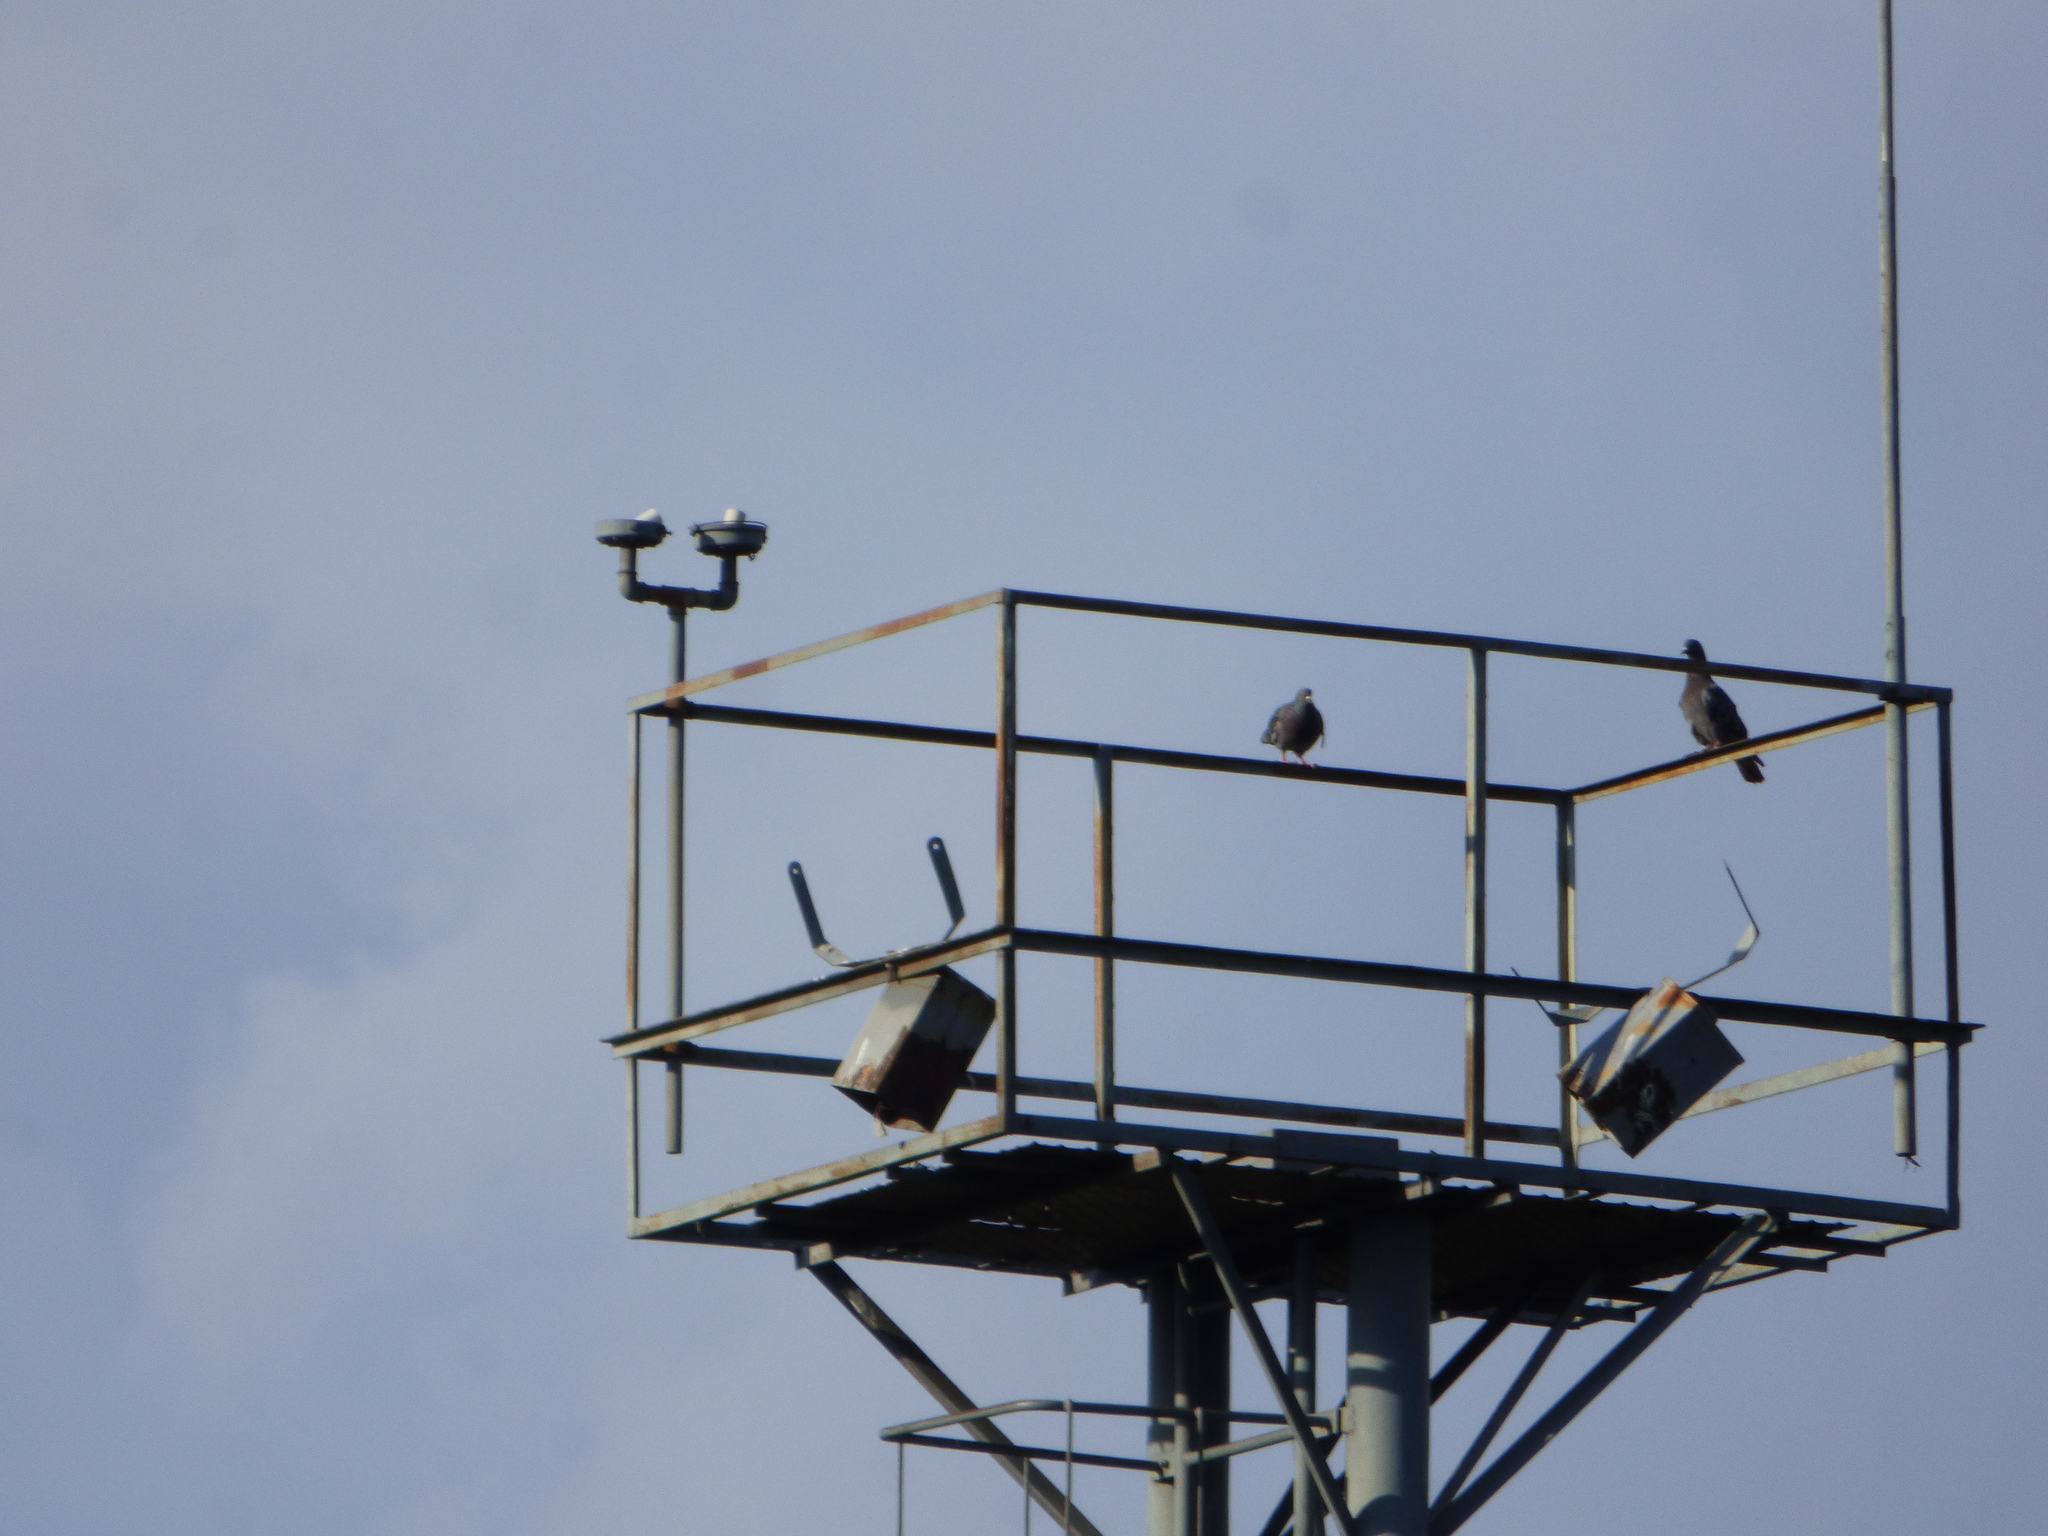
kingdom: Animalia
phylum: Chordata
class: Aves
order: Columbiformes
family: Columbidae
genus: Columba
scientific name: Columba livia
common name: Rock pigeon
